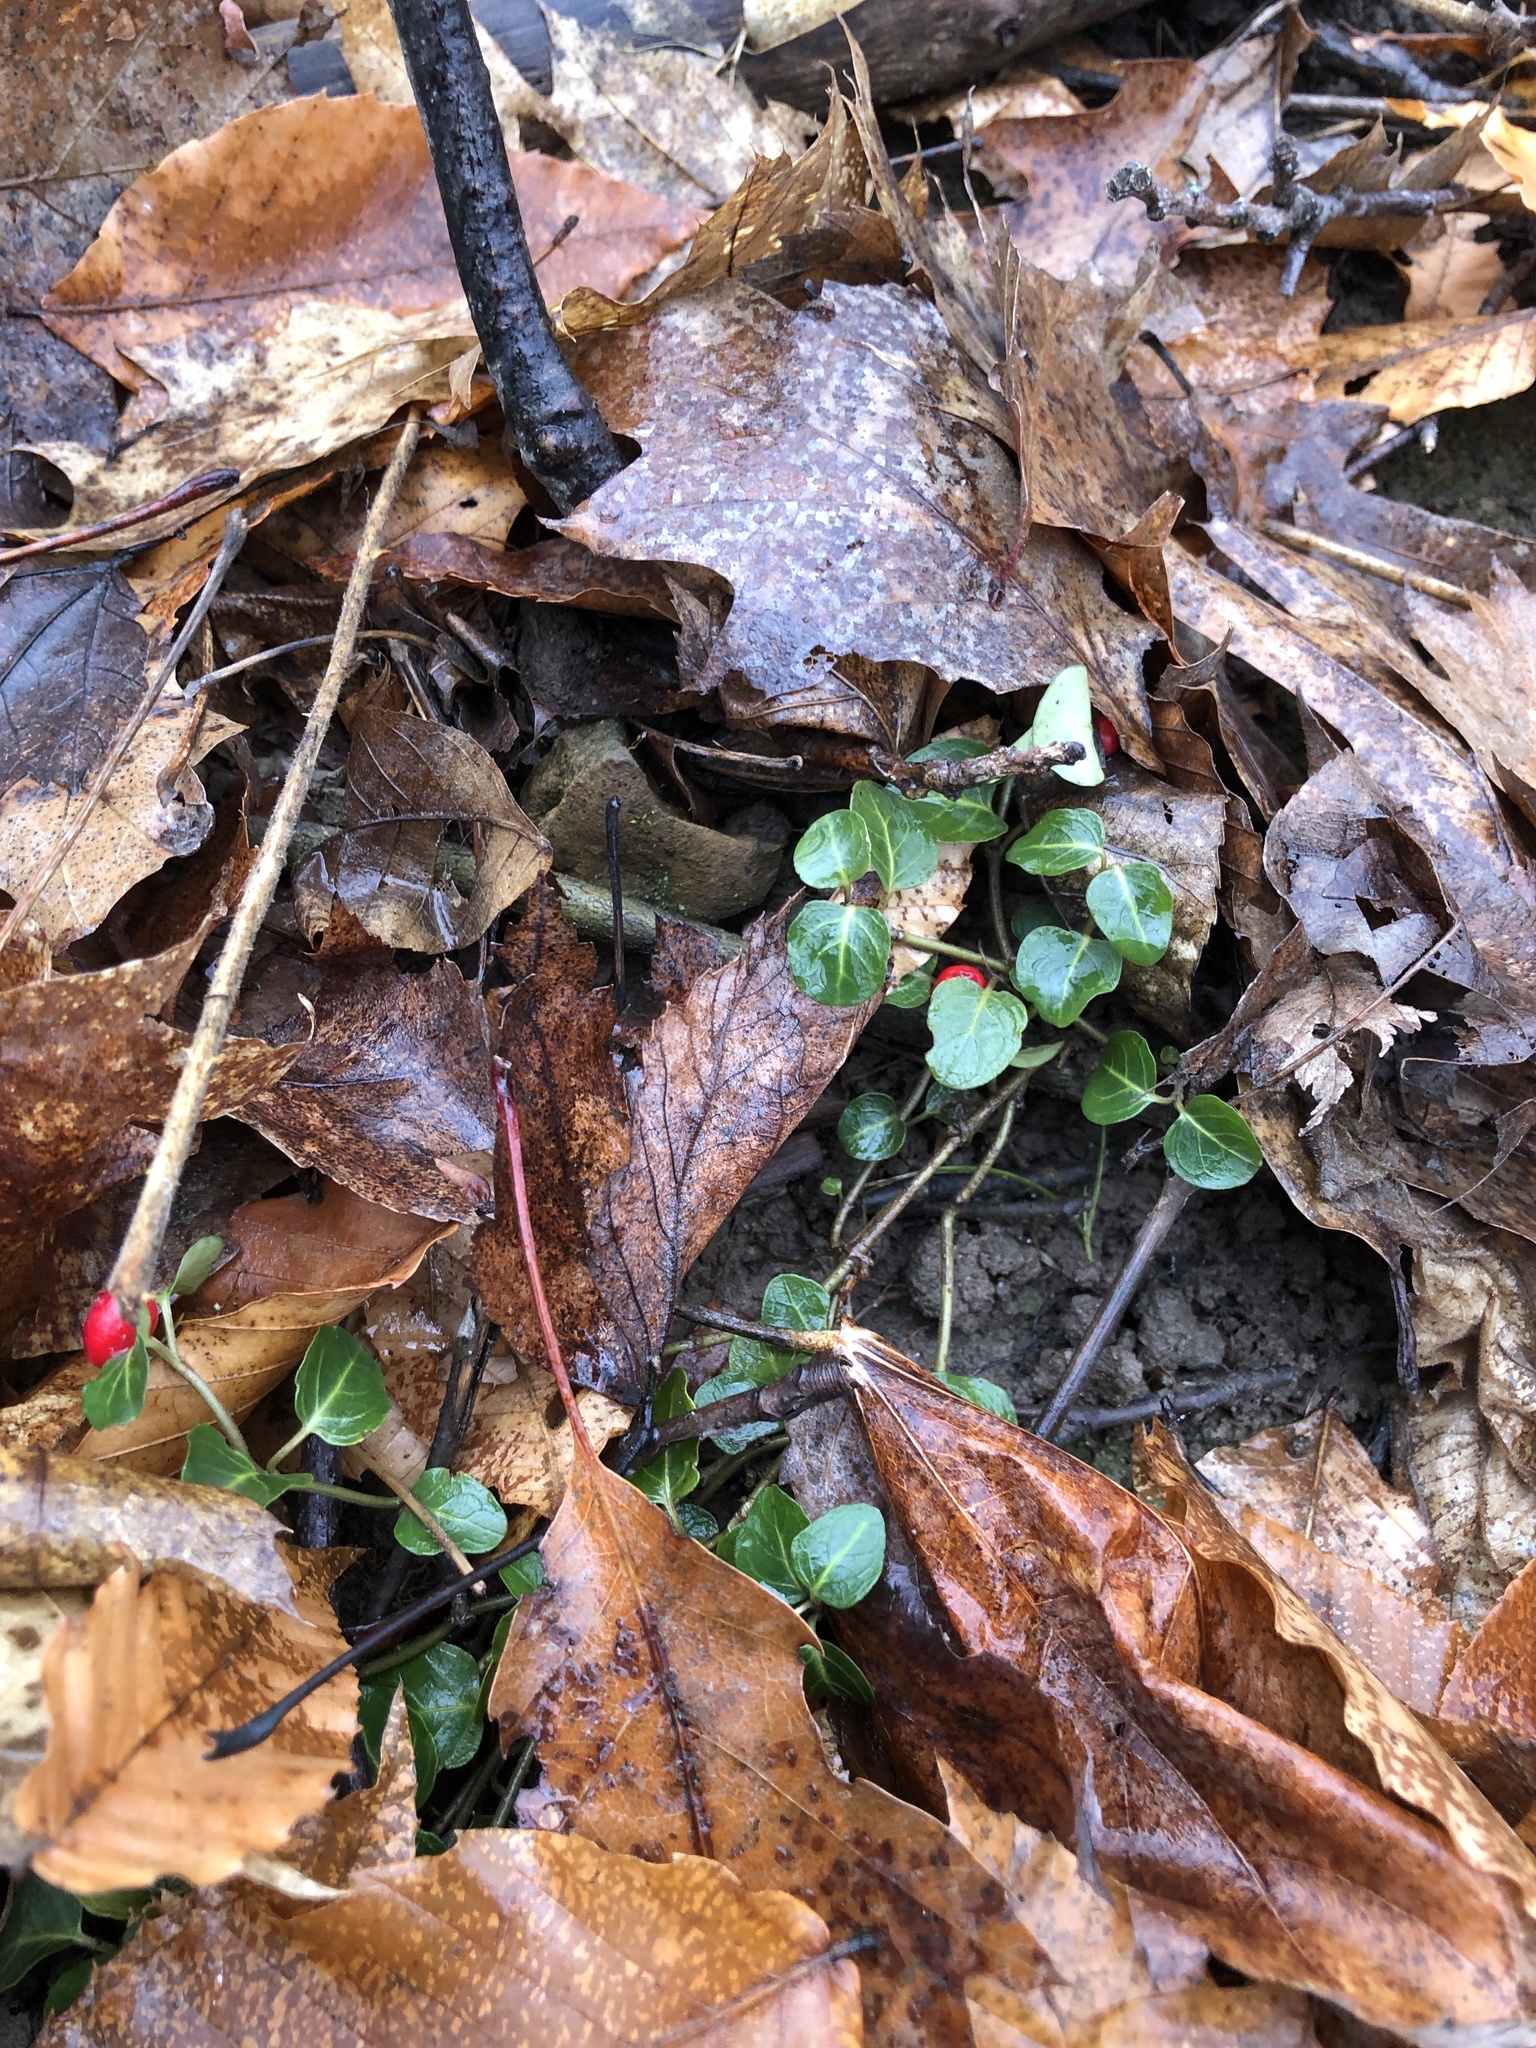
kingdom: Plantae
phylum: Tracheophyta
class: Magnoliopsida
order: Gentianales
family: Rubiaceae
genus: Mitchella
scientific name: Mitchella repens
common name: Partridge-berry
